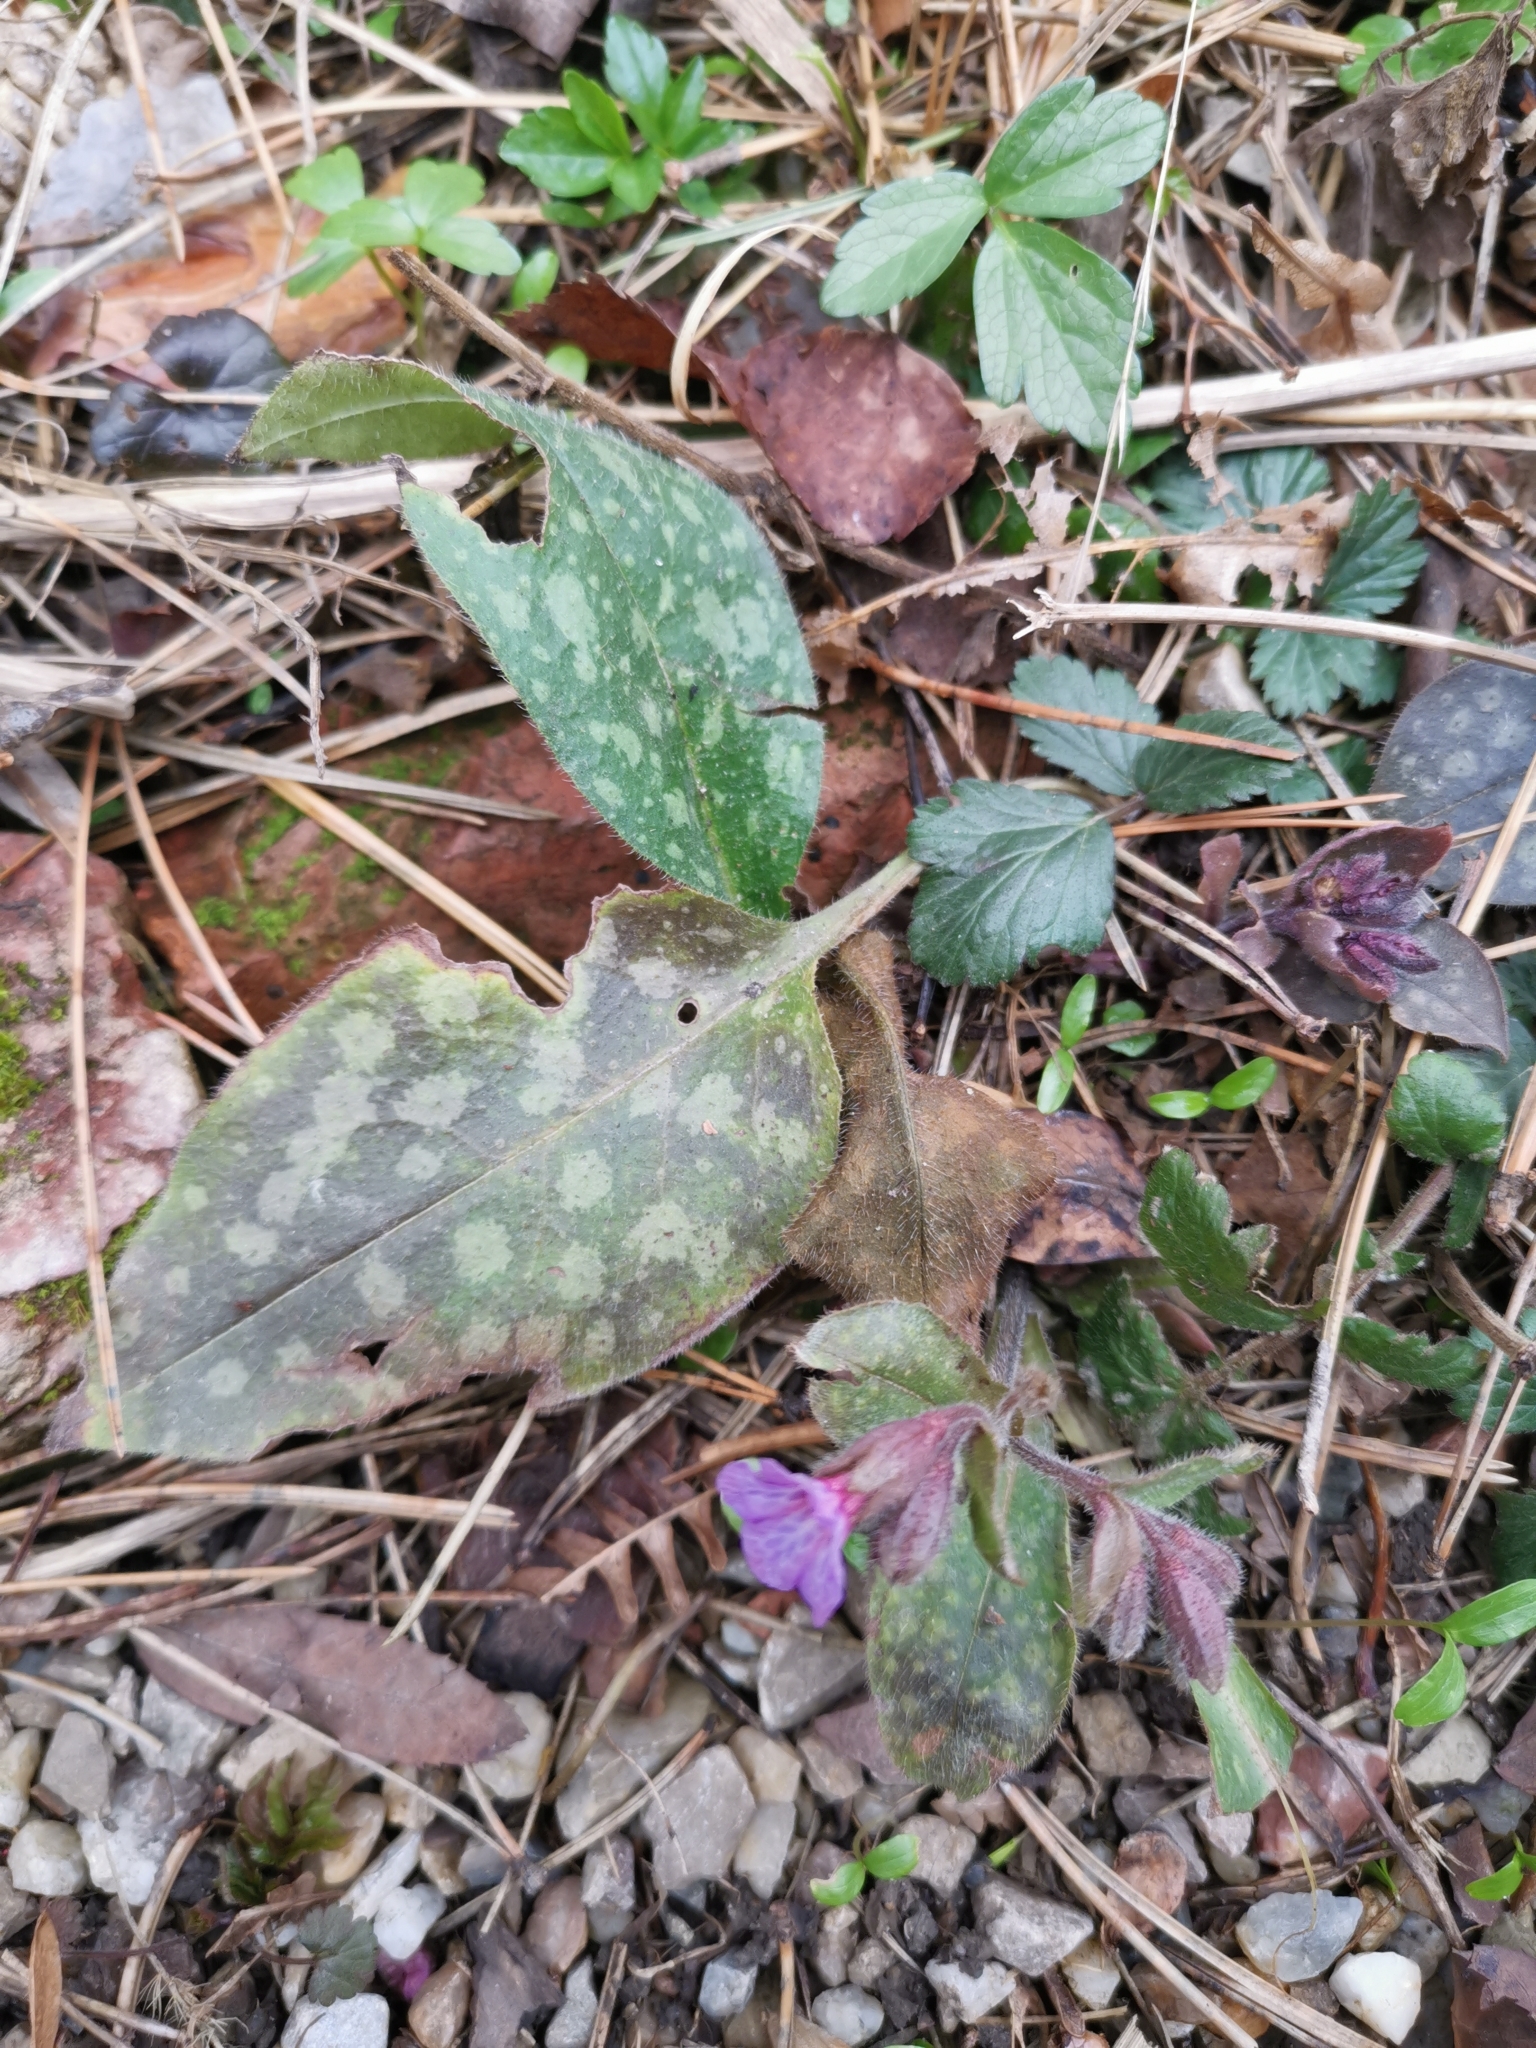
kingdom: Plantae
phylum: Tracheophyta
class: Magnoliopsida
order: Boraginales
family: Boraginaceae
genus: Pulmonaria
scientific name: Pulmonaria officinalis
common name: Lungwort
